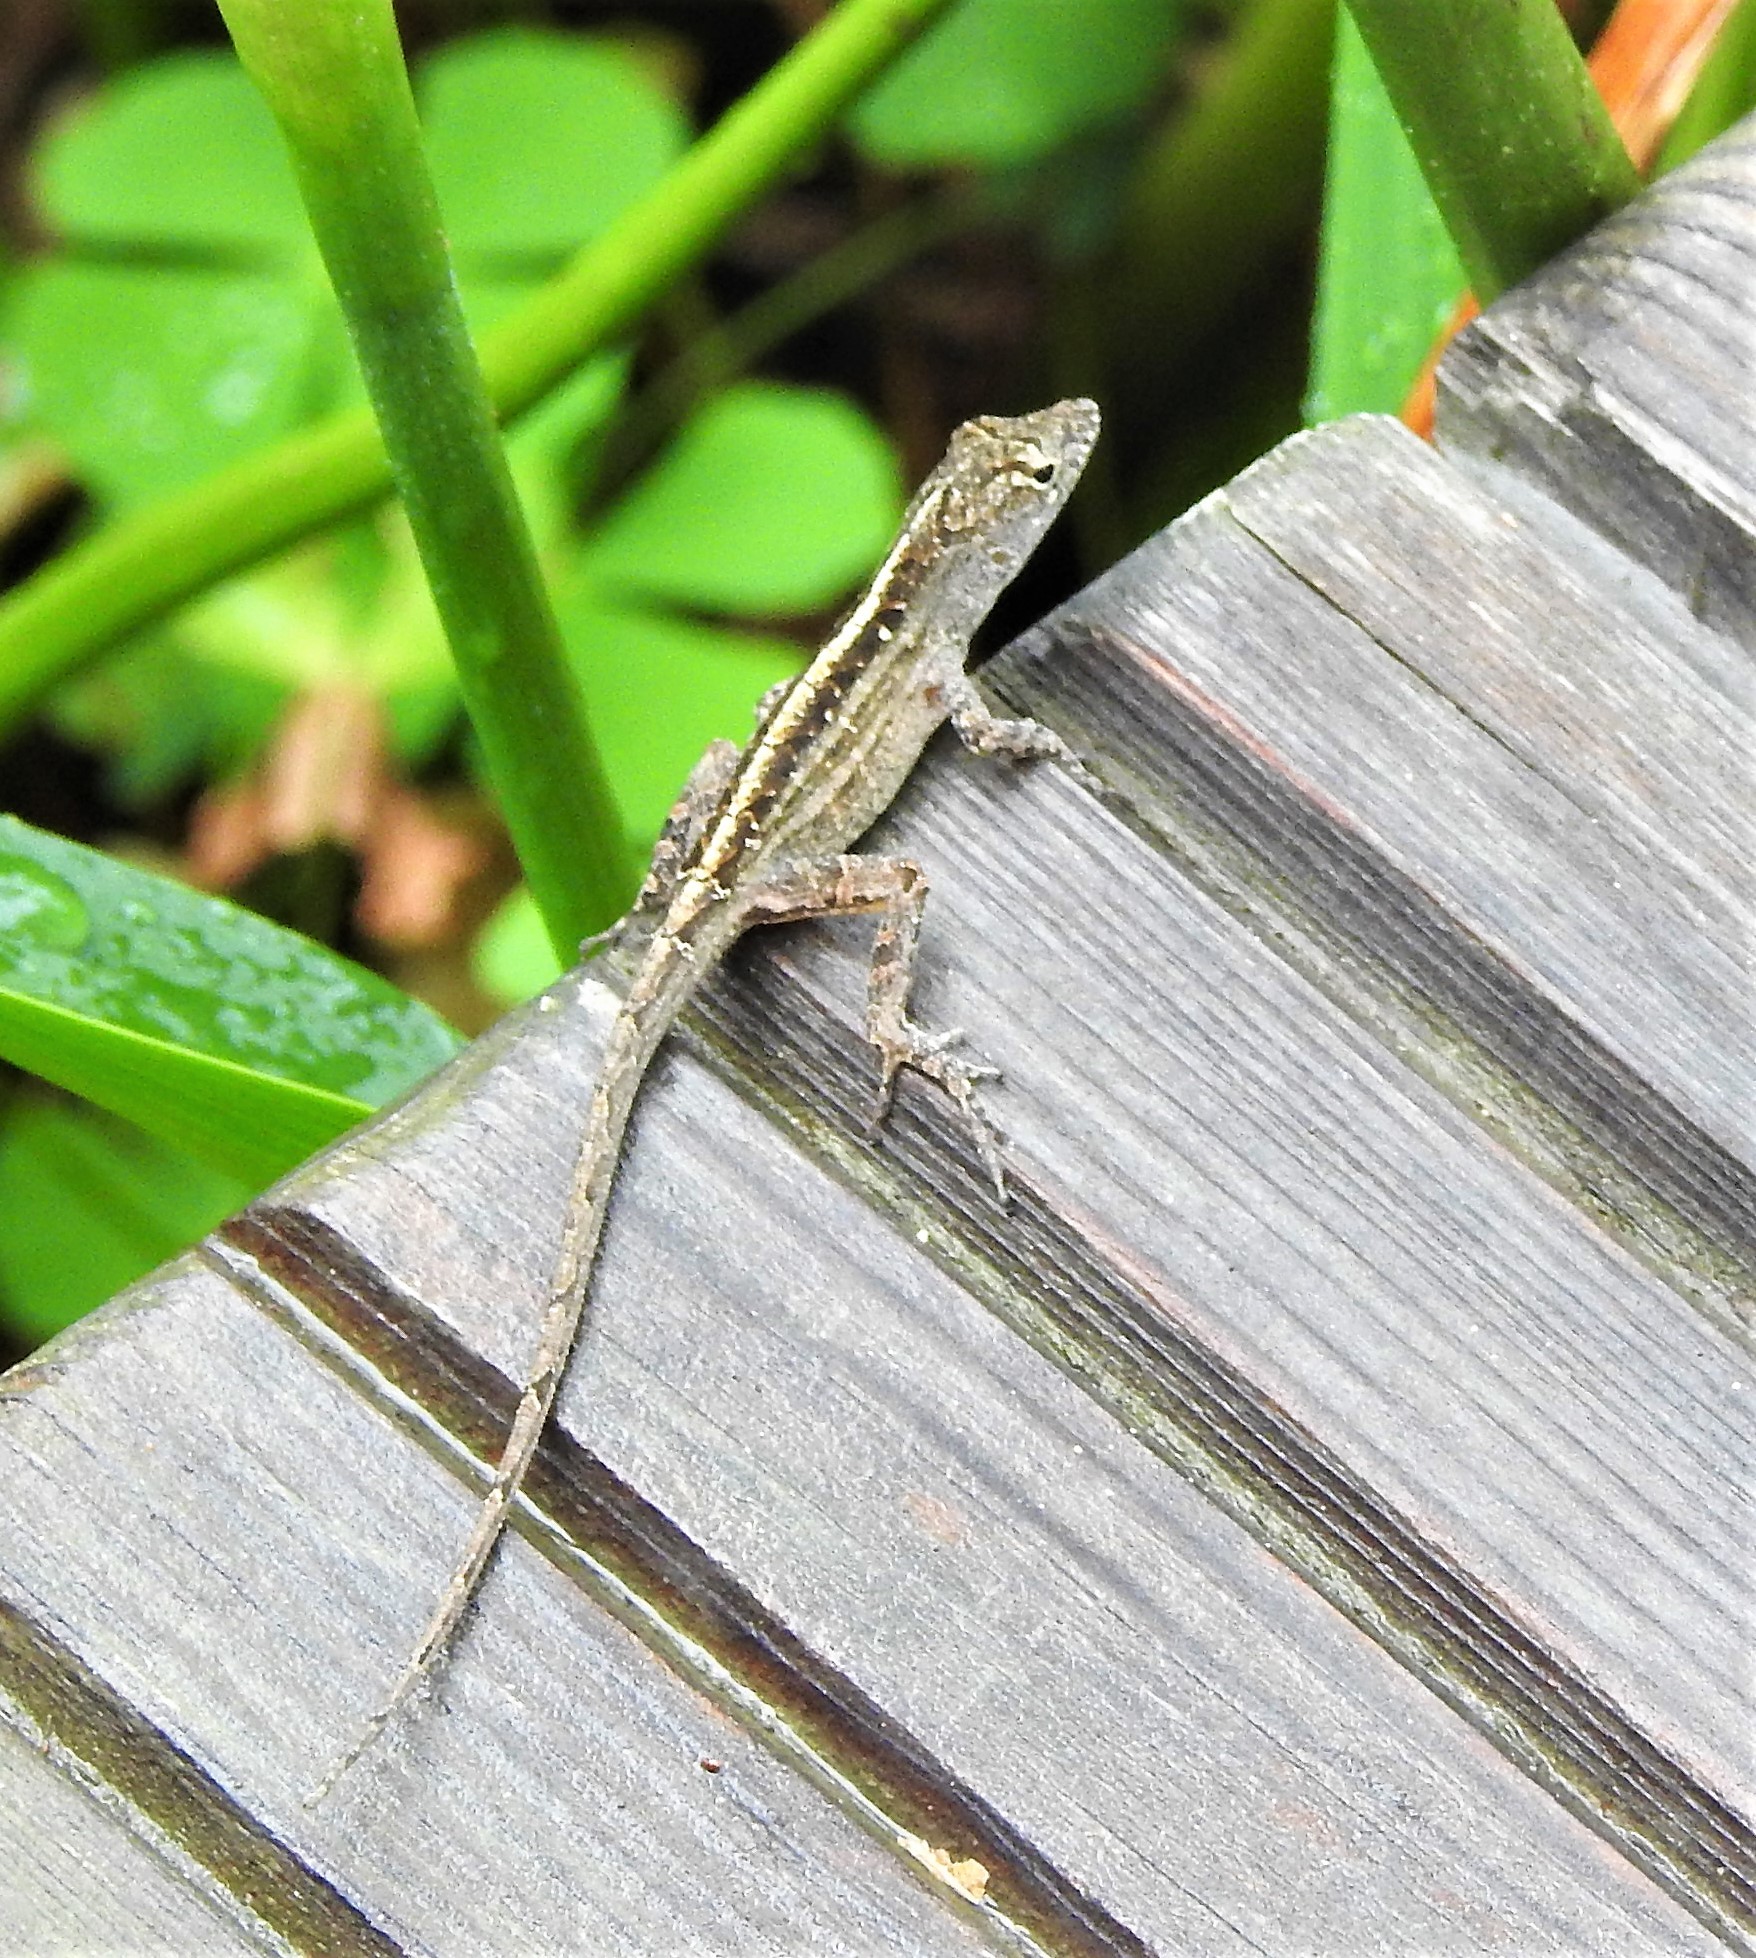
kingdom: Animalia
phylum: Chordata
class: Squamata
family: Dactyloidae
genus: Anolis
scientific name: Anolis sagrei
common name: Brown anole
